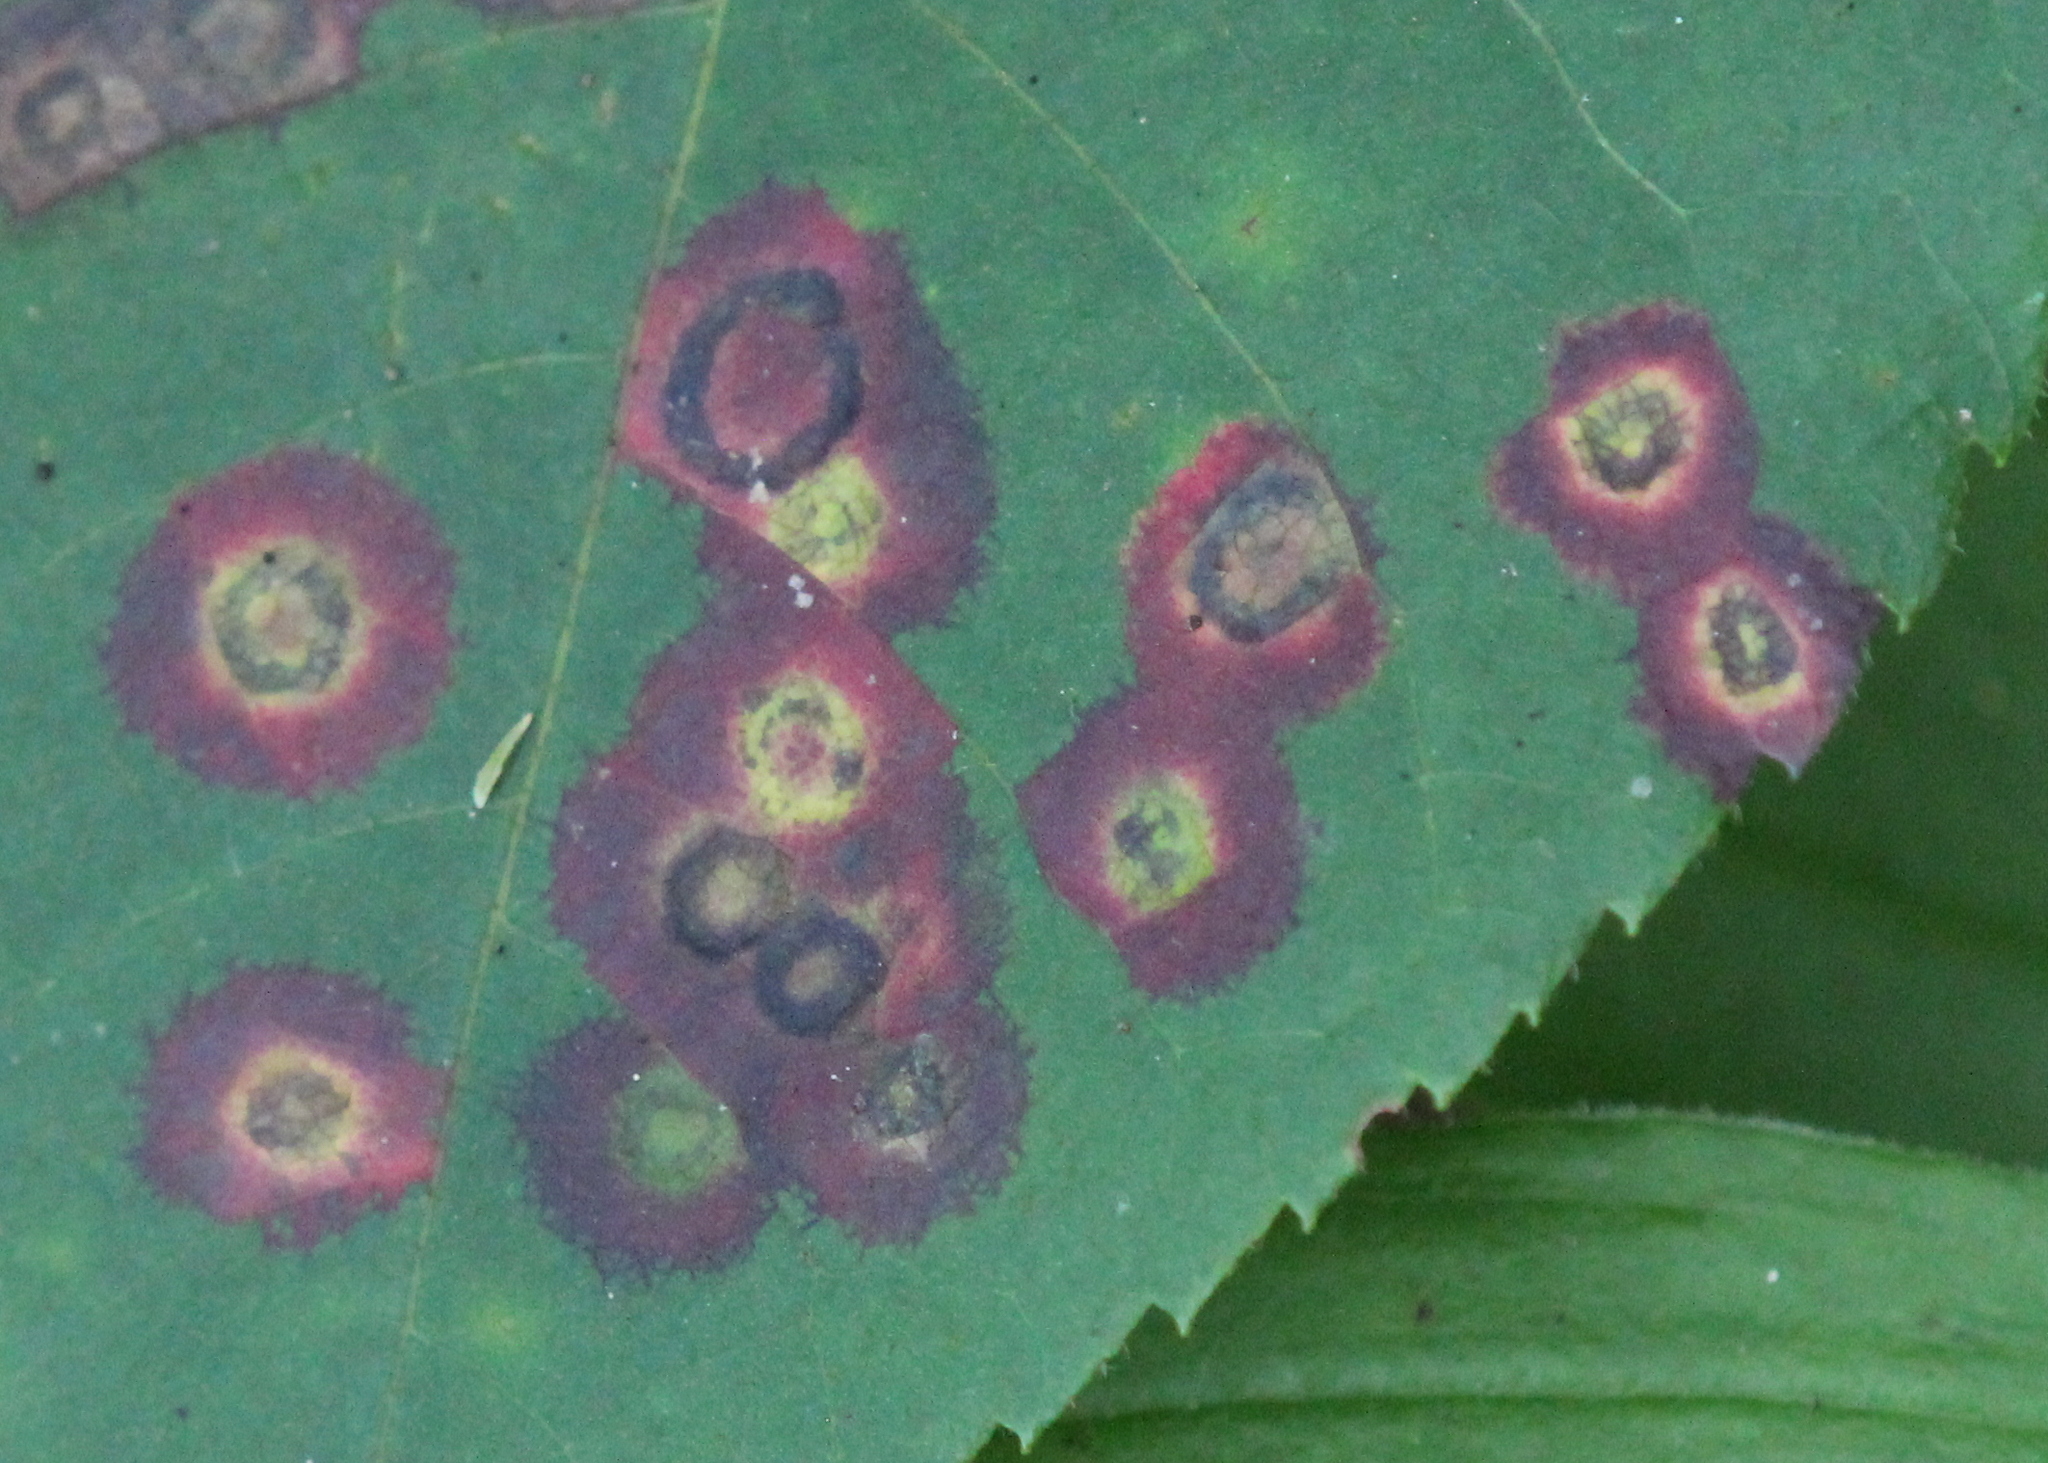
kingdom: Animalia
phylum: Arthropoda
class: Insecta
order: Diptera
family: Cecidomyiidae
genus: Gliaspilota
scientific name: Gliaspilota glutinosa
